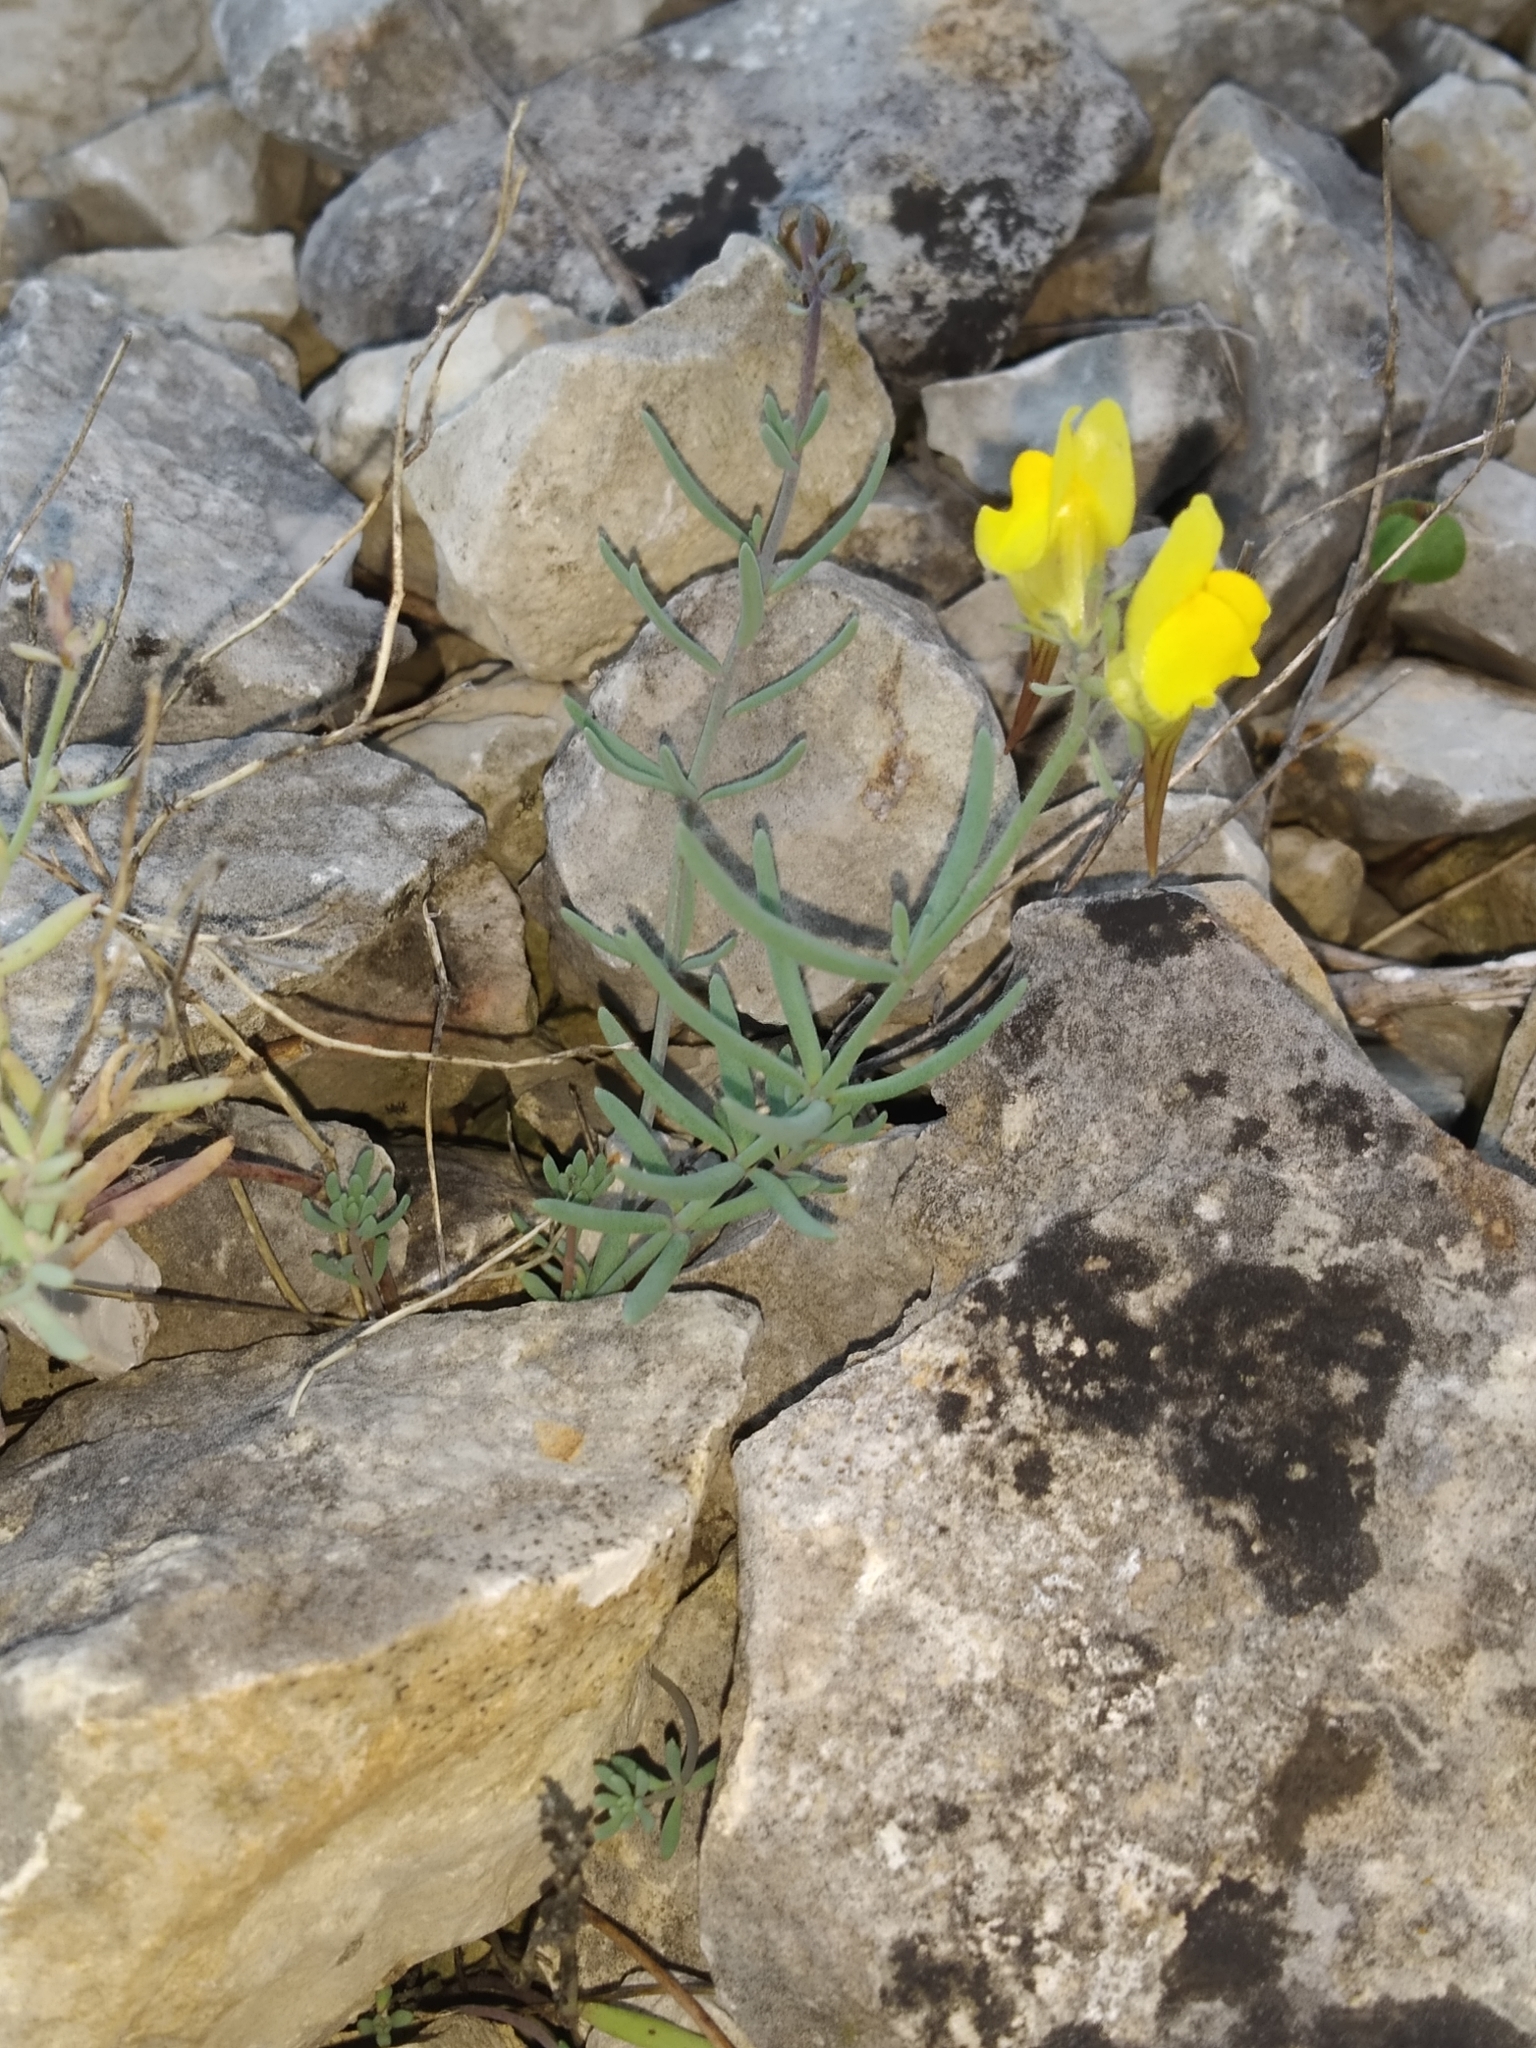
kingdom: Plantae
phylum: Tracheophyta
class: Magnoliopsida
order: Lamiales
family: Plantaginaceae
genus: Linaria
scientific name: Linaria supina
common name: Prostrate toadflax
